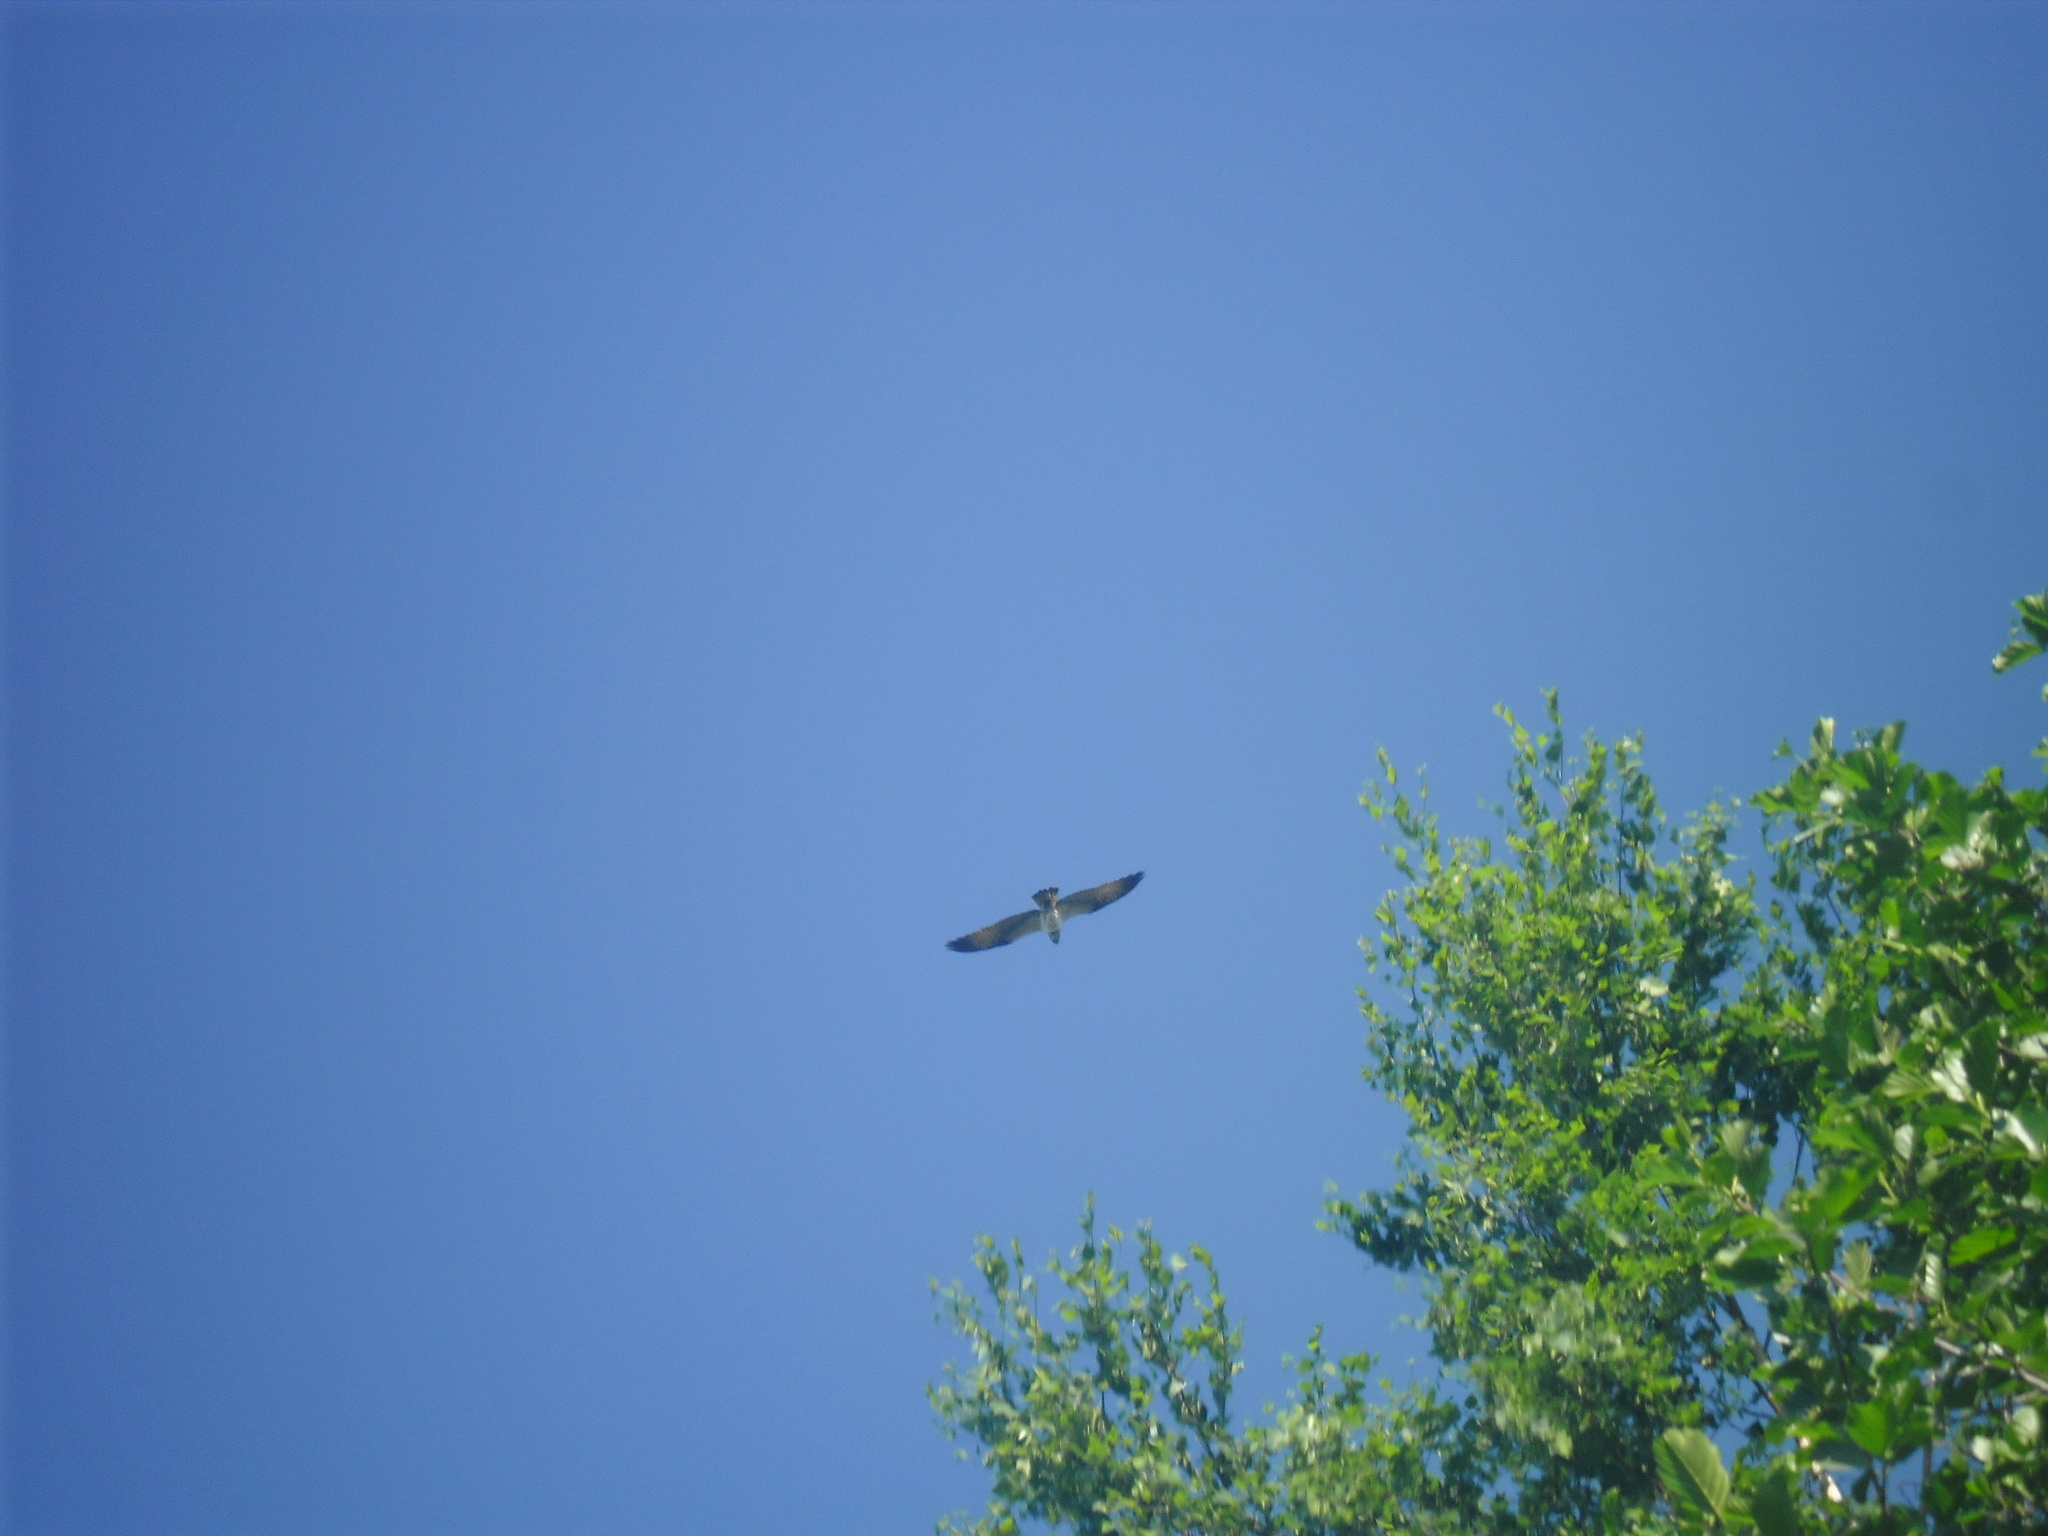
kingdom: Animalia
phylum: Chordata
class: Aves
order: Accipitriformes
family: Pandionidae
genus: Pandion
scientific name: Pandion haliaetus
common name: Osprey
